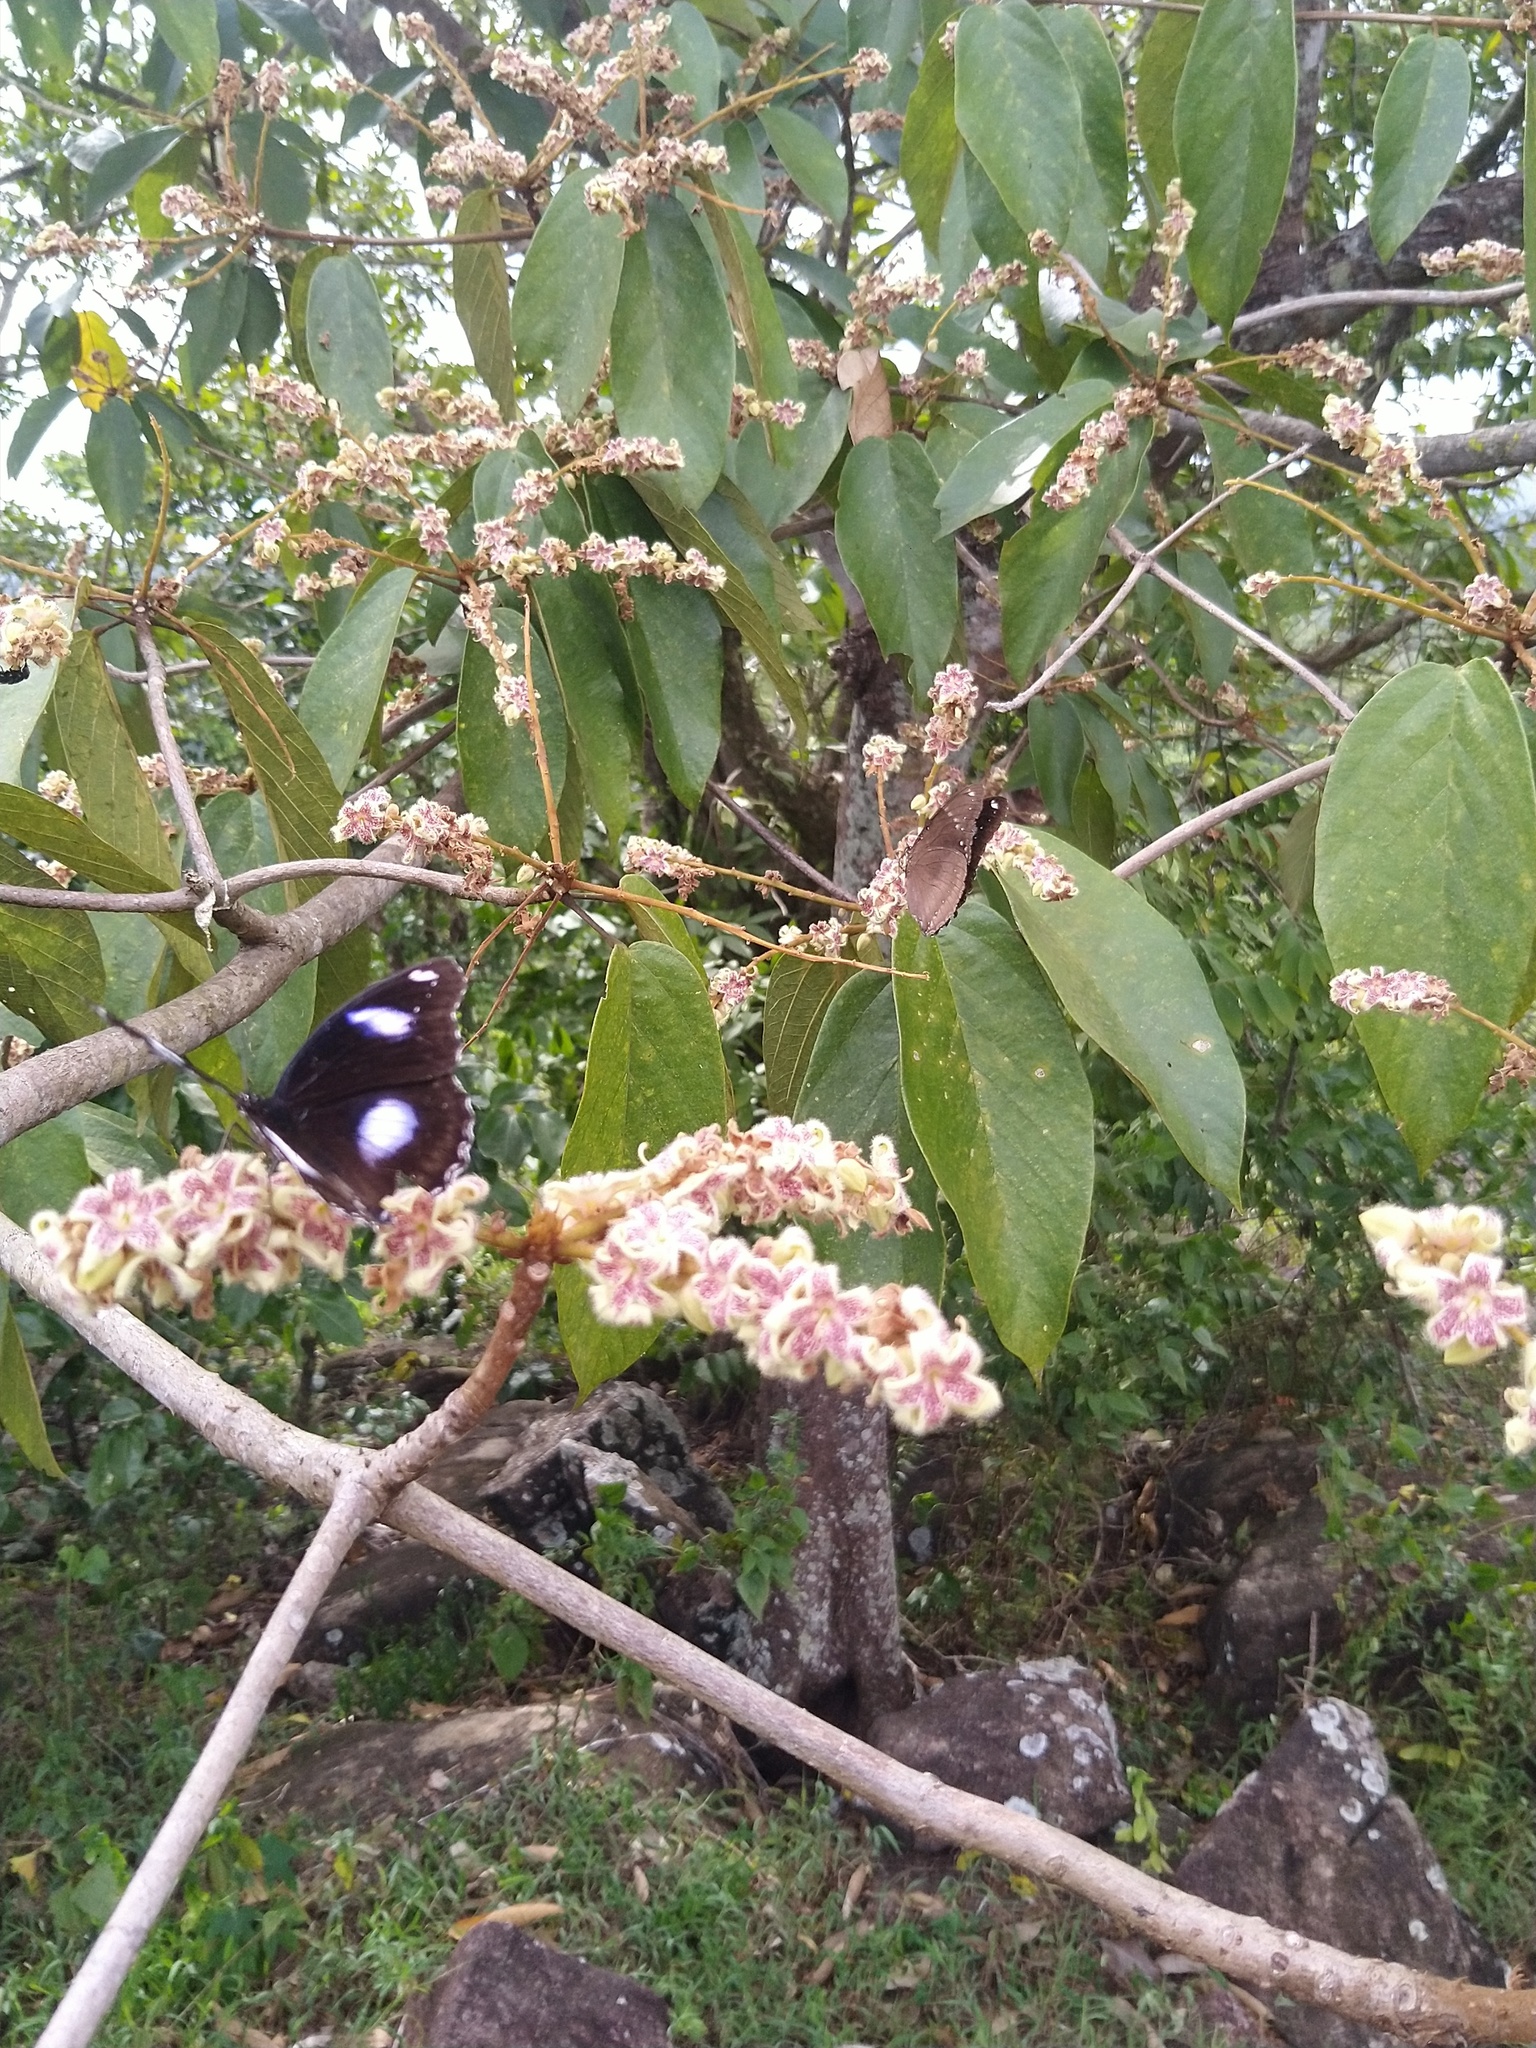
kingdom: Animalia
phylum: Arthropoda
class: Insecta
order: Lepidoptera
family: Nymphalidae
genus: Hypolimnas
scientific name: Hypolimnas bolina
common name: Great eggfly
